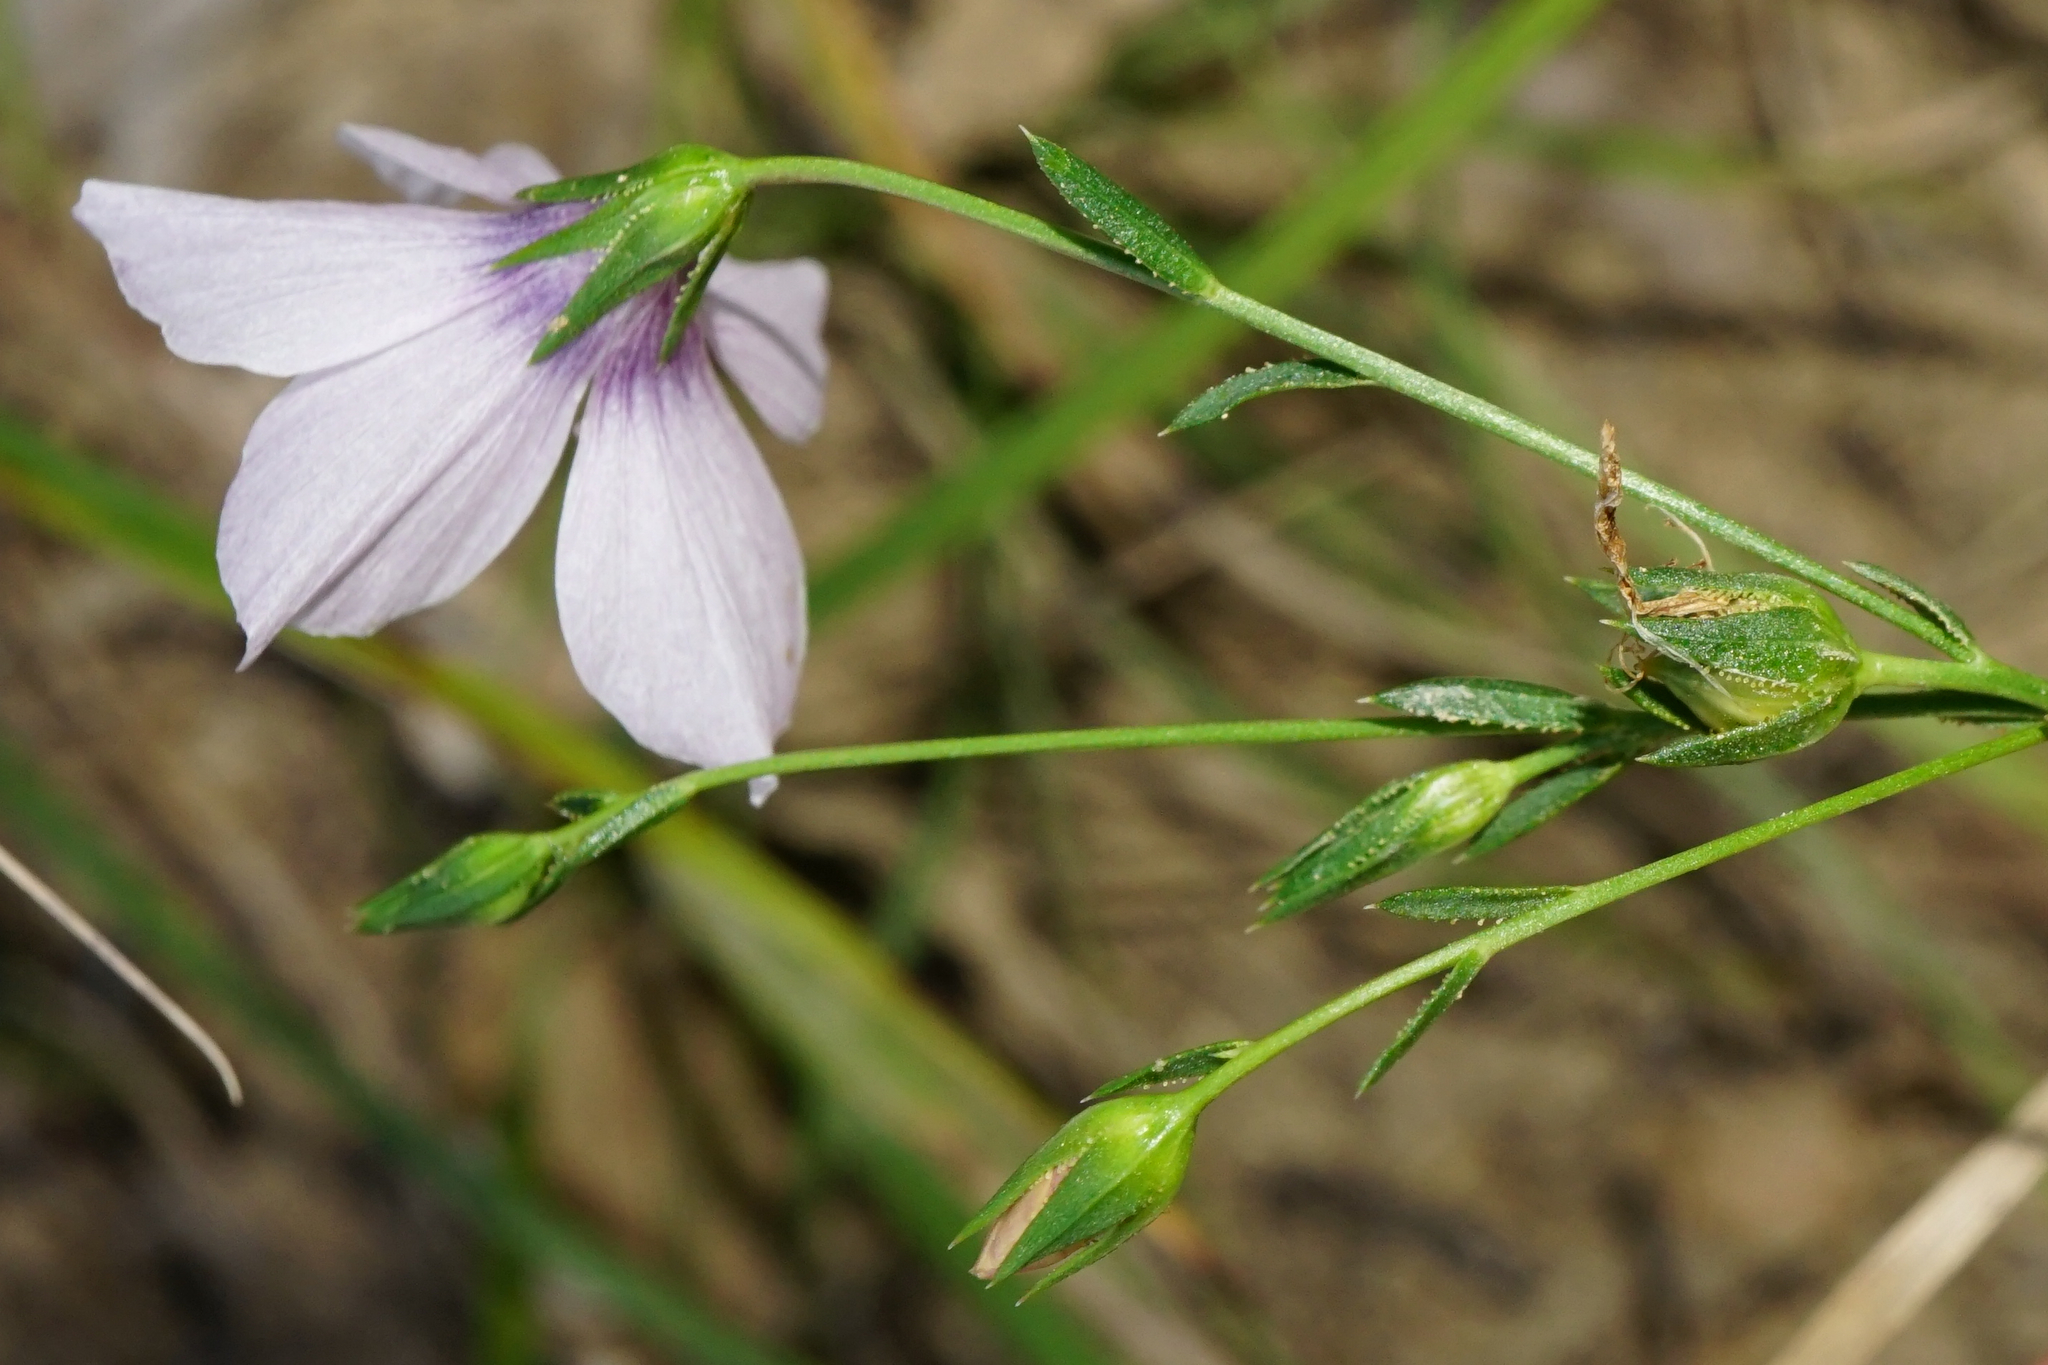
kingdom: Plantae
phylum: Tracheophyta
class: Magnoliopsida
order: Malpighiales
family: Linaceae
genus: Linum
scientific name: Linum tenuifolium
